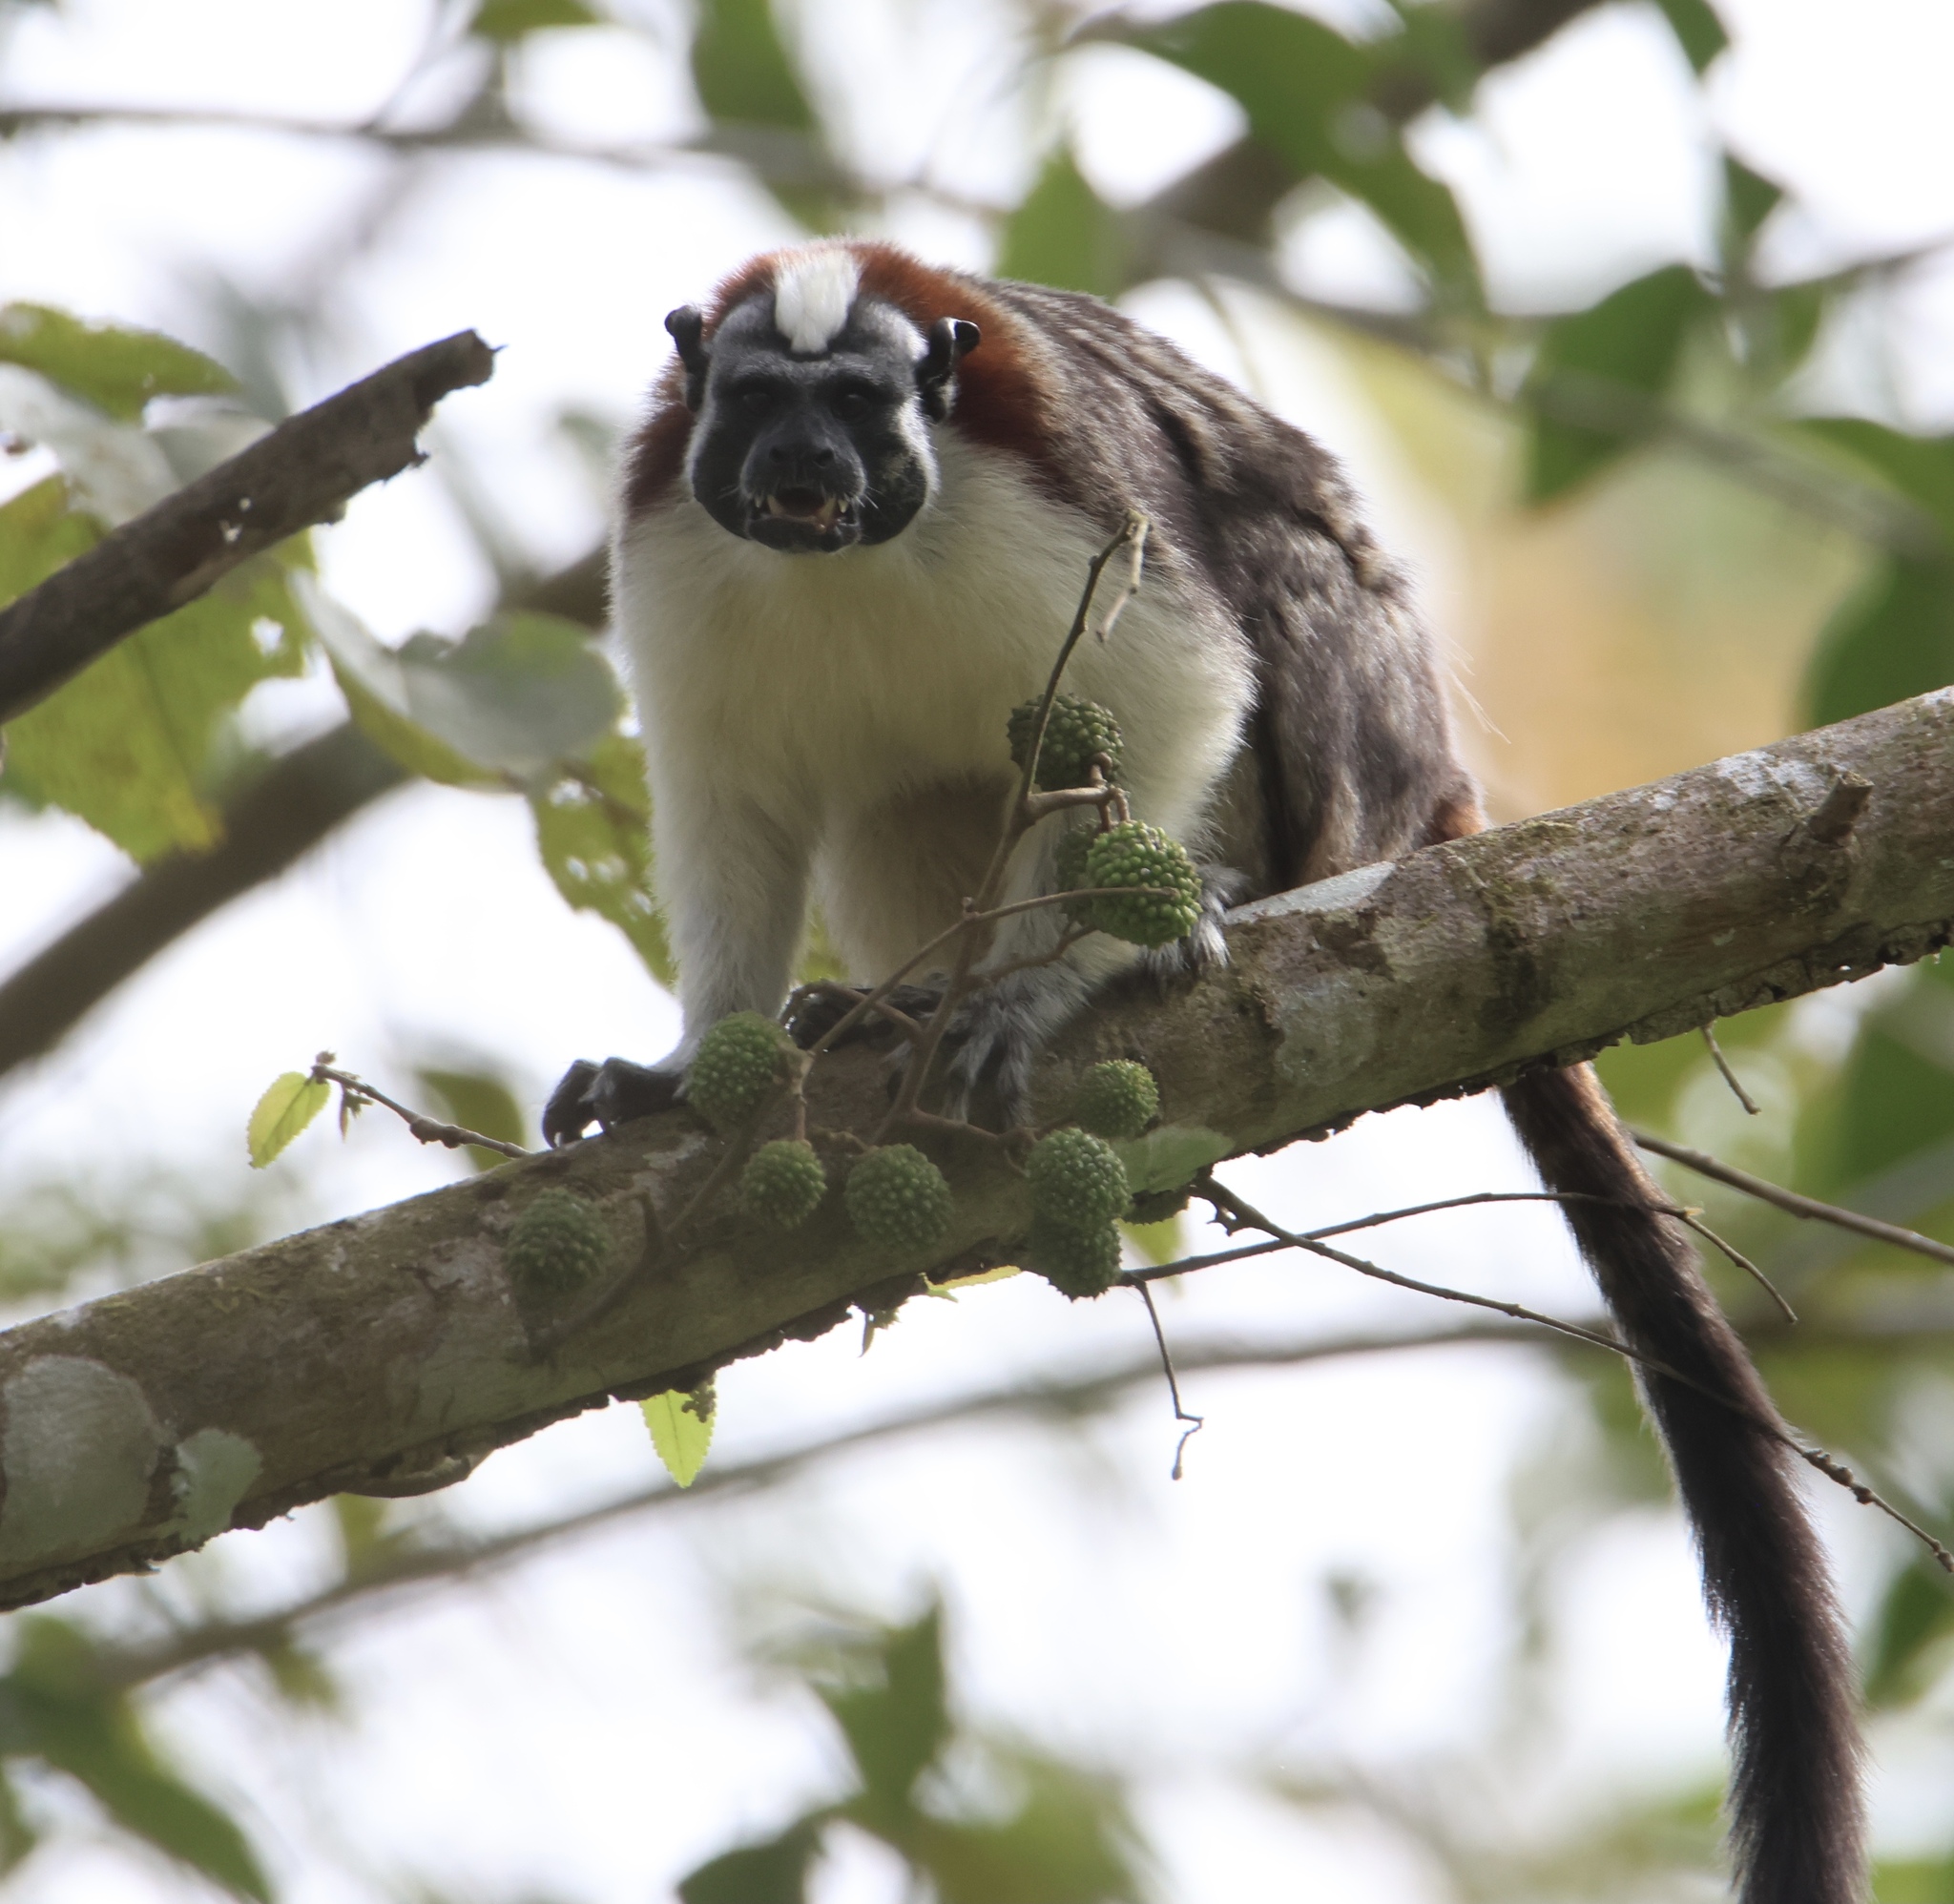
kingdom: Animalia
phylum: Chordata
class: Mammalia
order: Primates
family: Callitrichidae
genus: Saguinus
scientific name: Saguinus geoffroyi
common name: Geoffroy s tamarin
